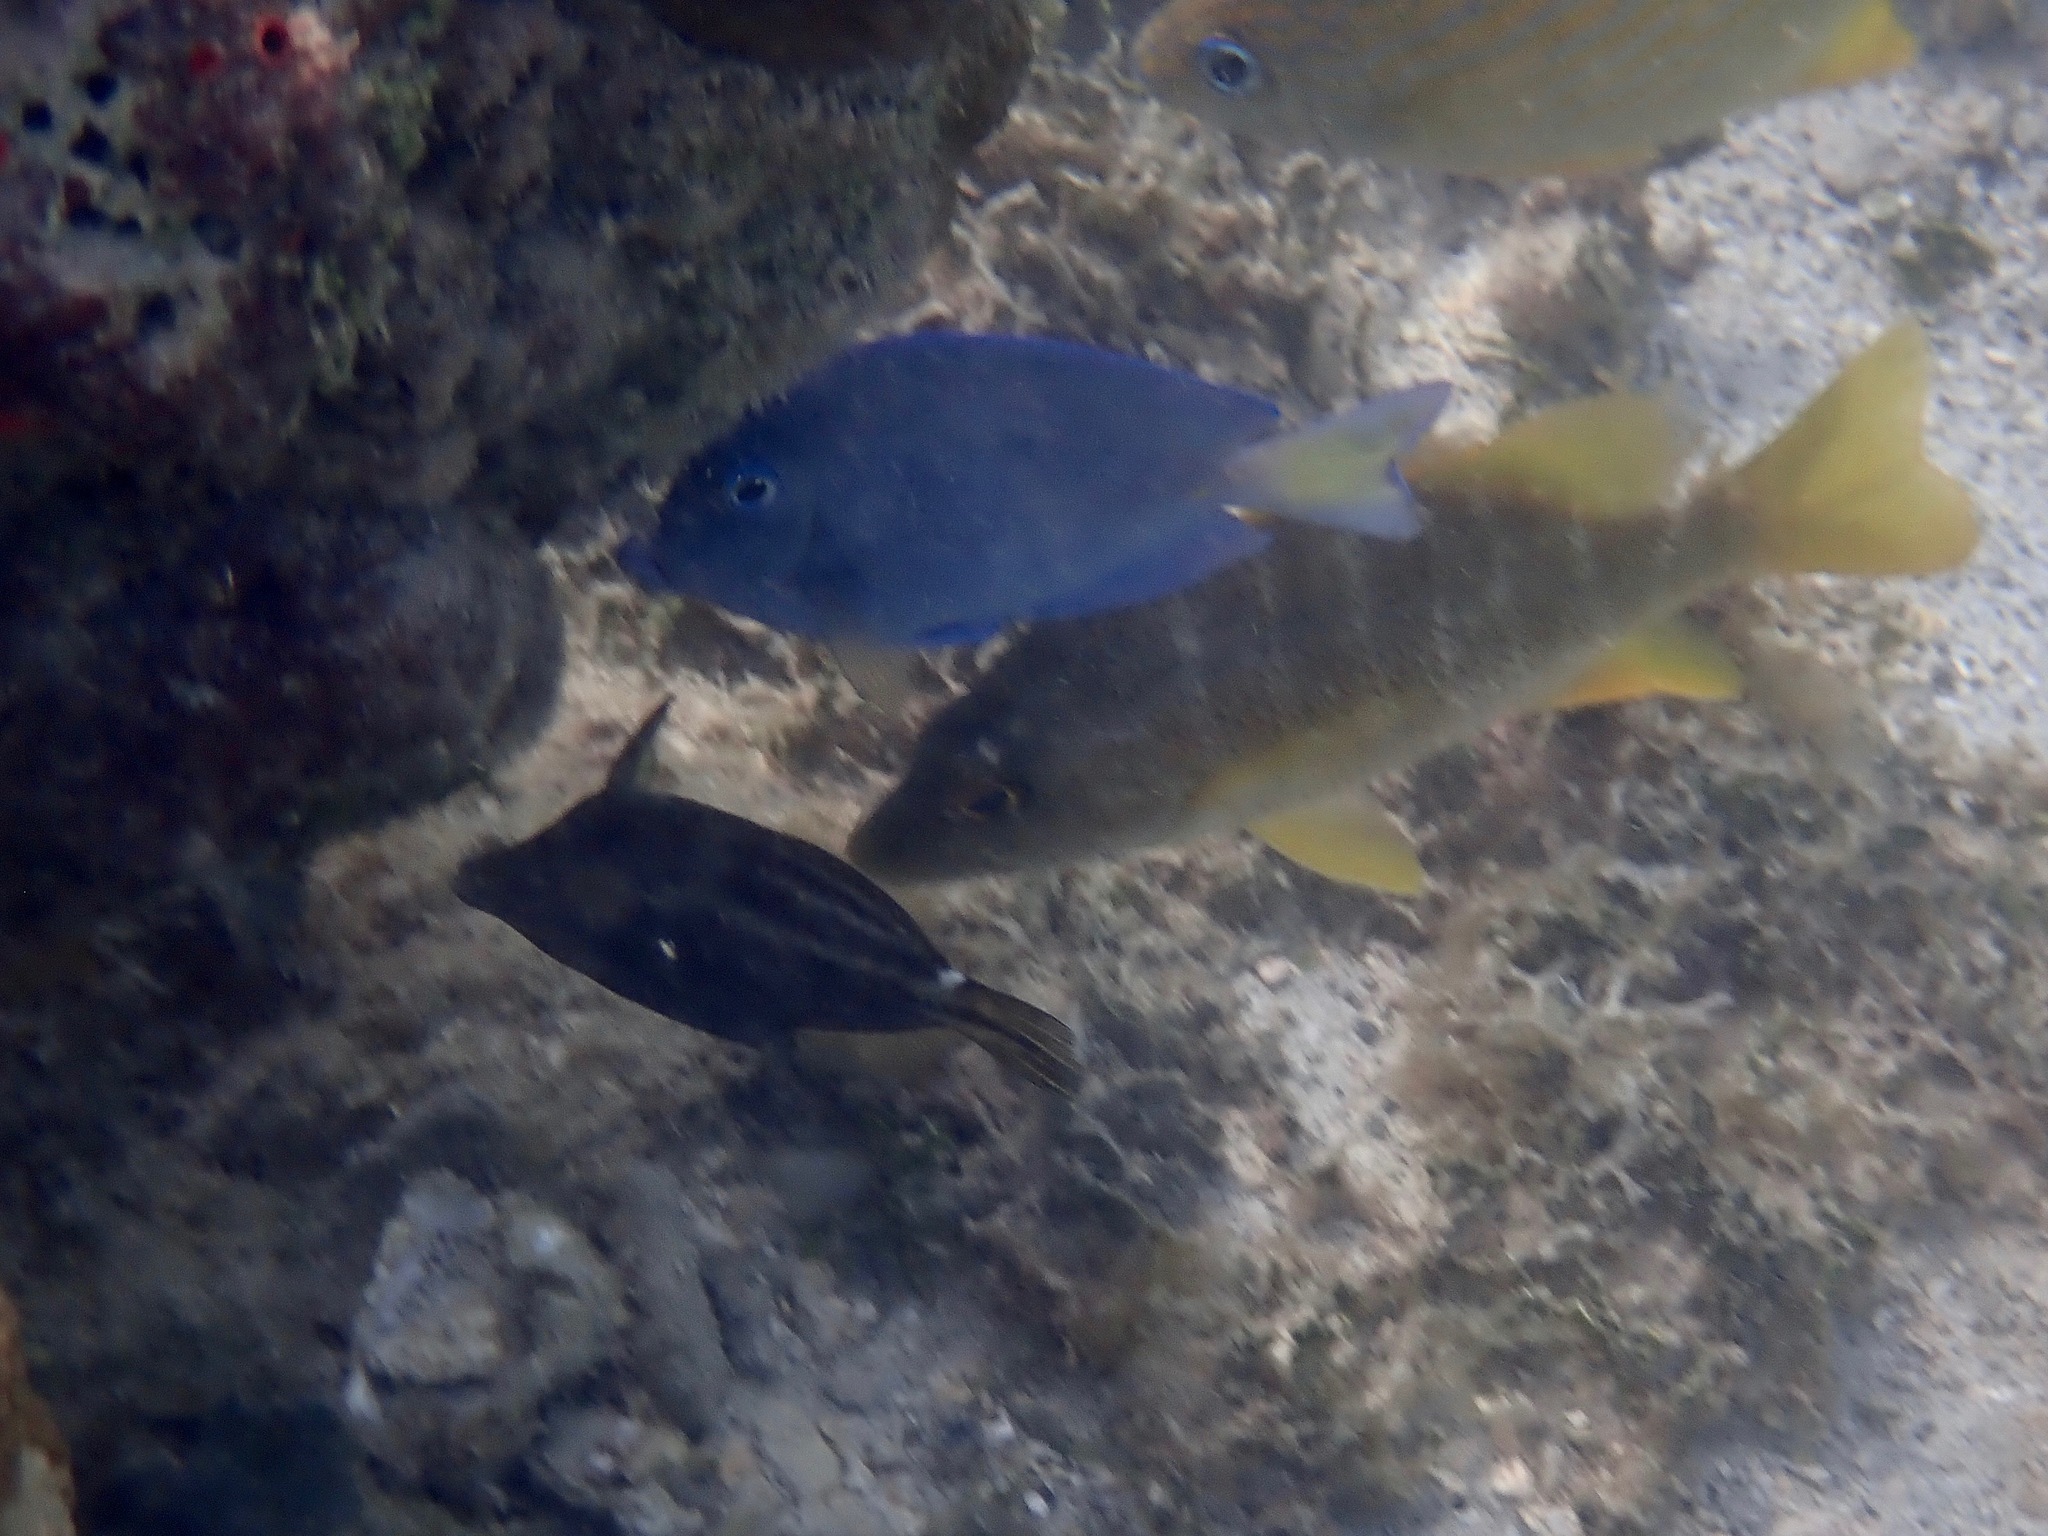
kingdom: Animalia
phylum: Chordata
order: Tetraodontiformes
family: Monacanthidae
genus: Cantherhines
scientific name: Cantherhines pullus
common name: Orangespotted filefish
